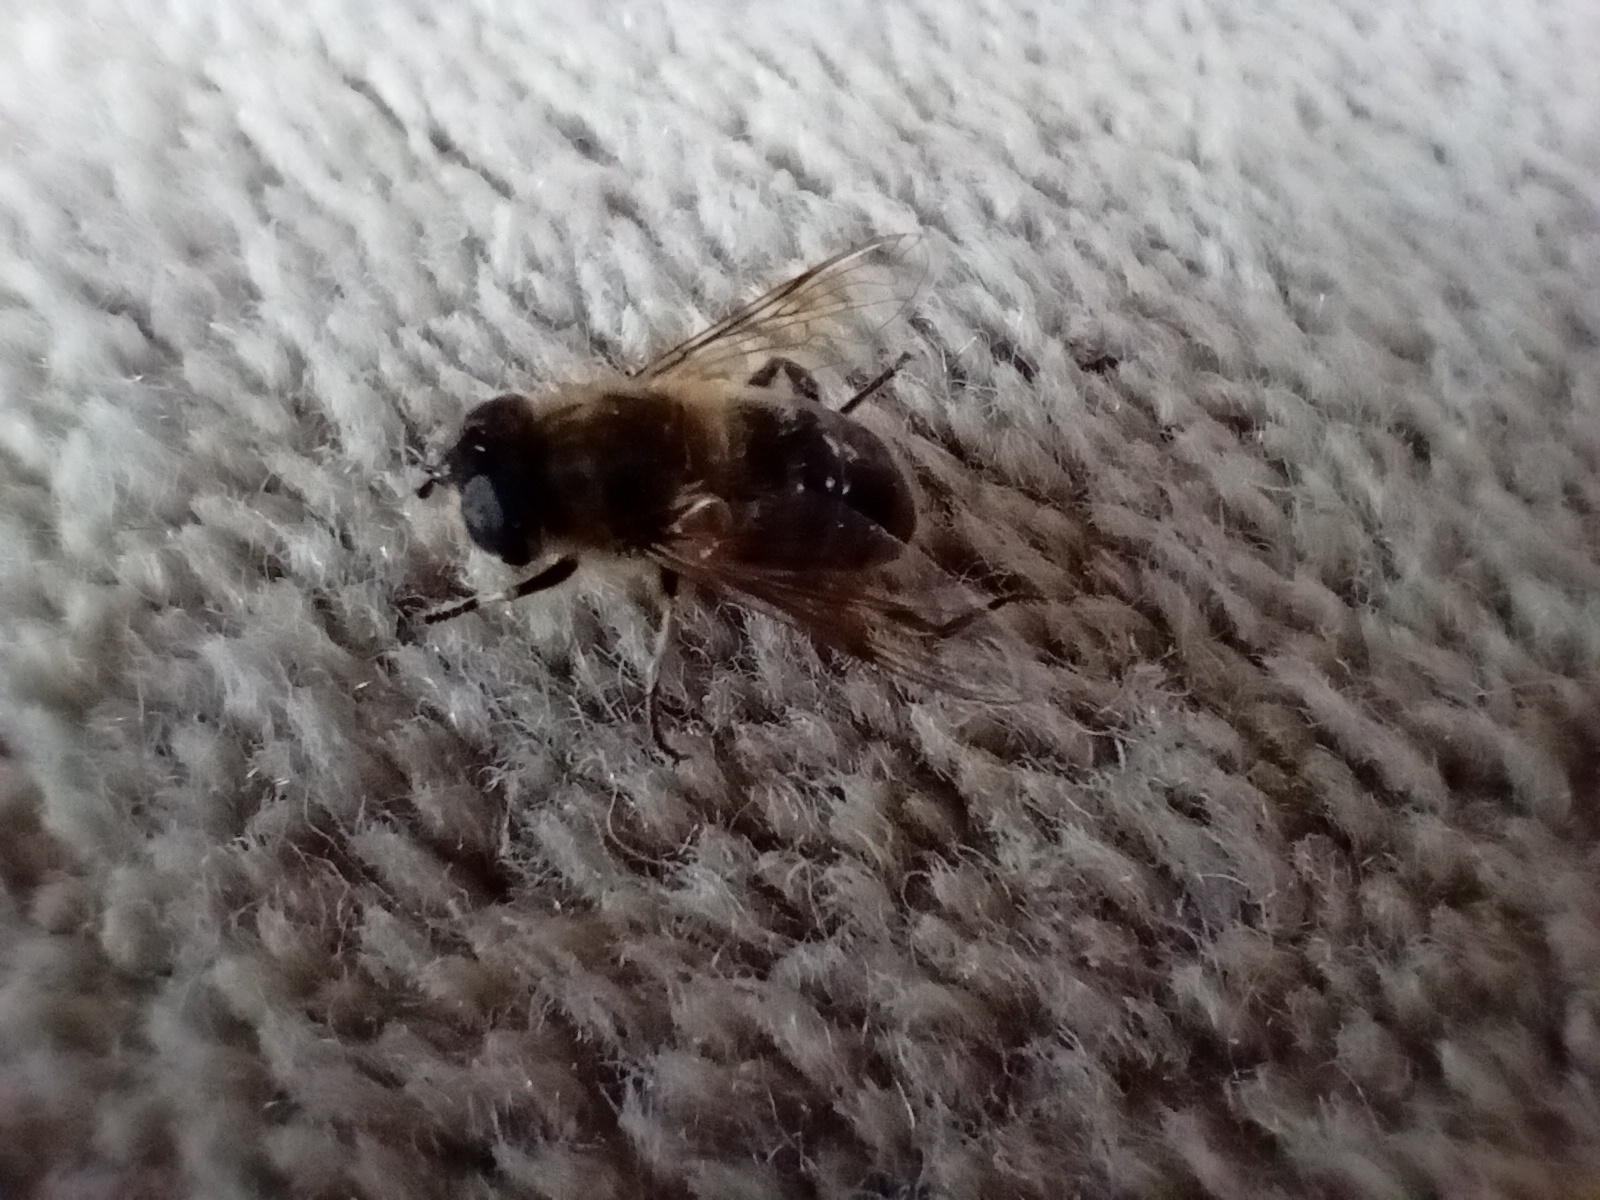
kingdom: Animalia
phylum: Arthropoda
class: Insecta
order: Diptera
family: Syrphidae
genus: Eristalis
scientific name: Eristalis tenax
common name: Drone fly
